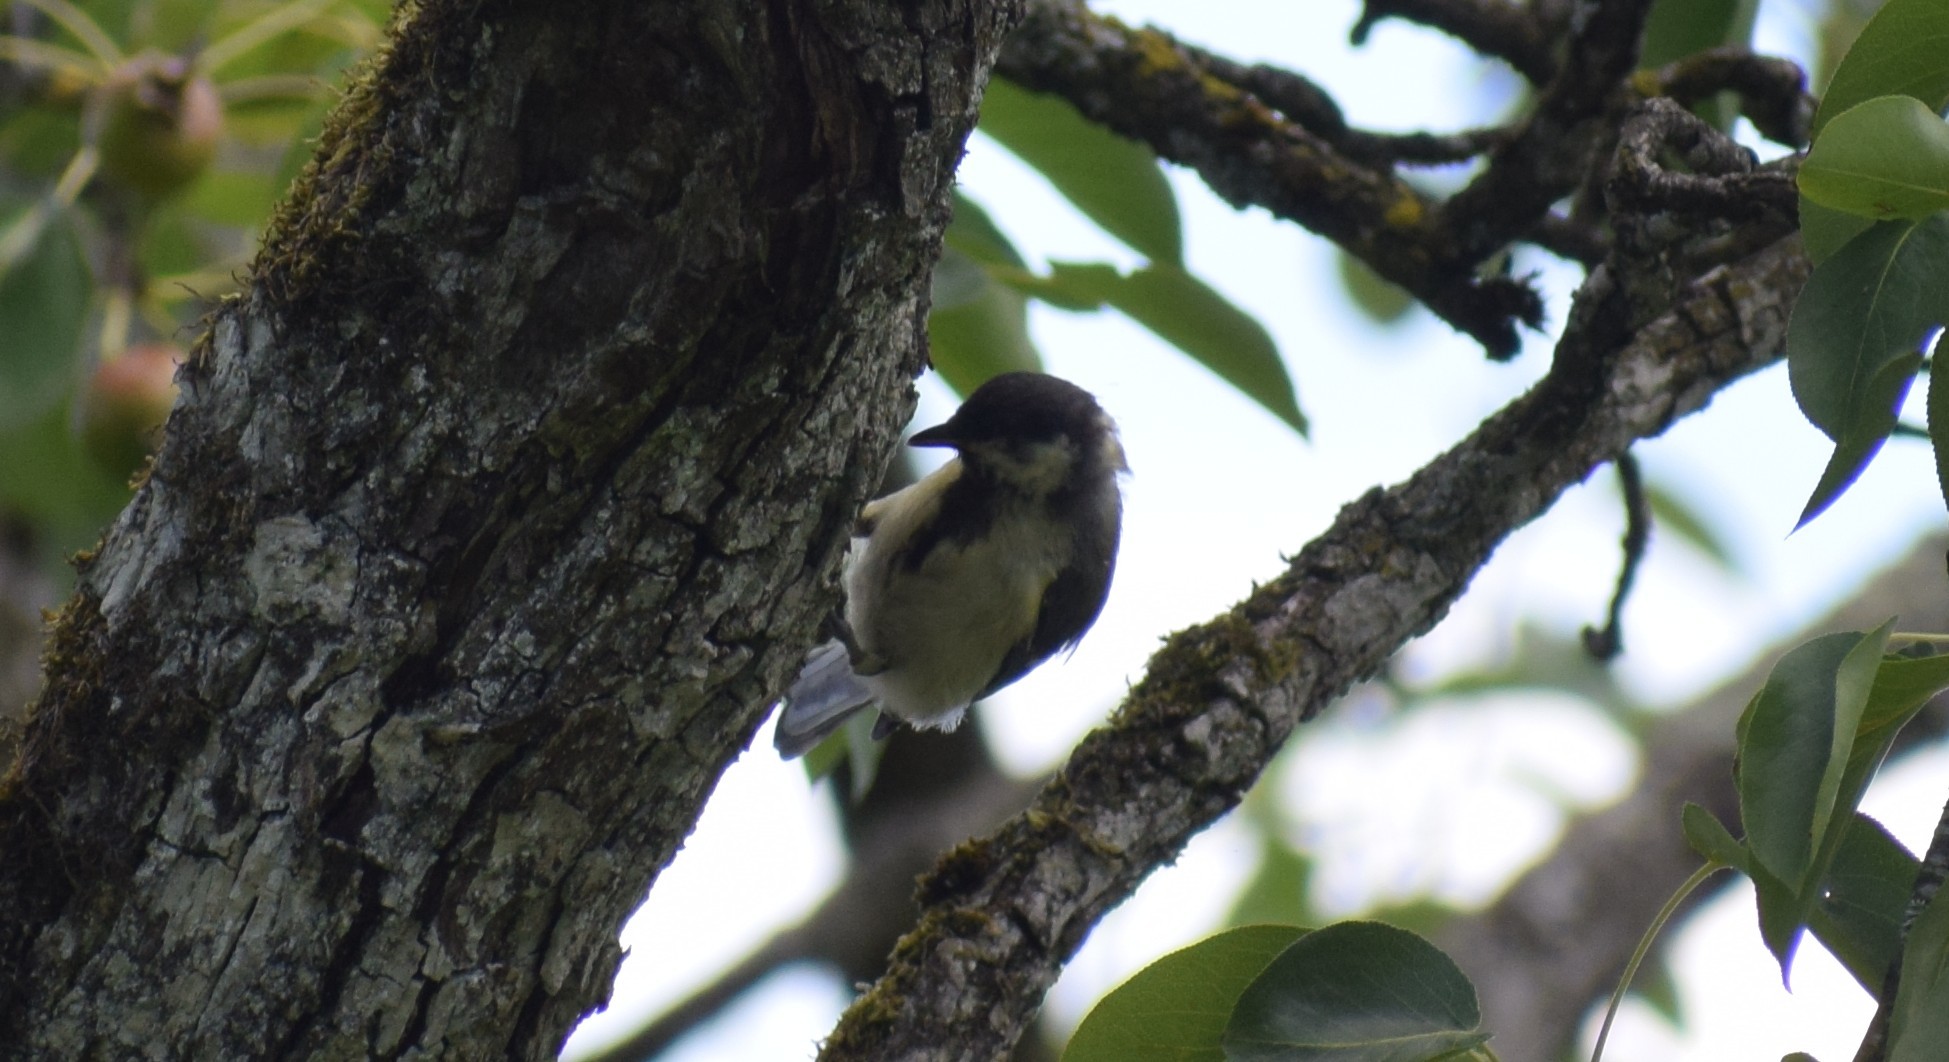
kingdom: Animalia
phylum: Chordata
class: Aves
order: Passeriformes
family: Paridae
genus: Parus
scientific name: Parus major
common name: Great tit
